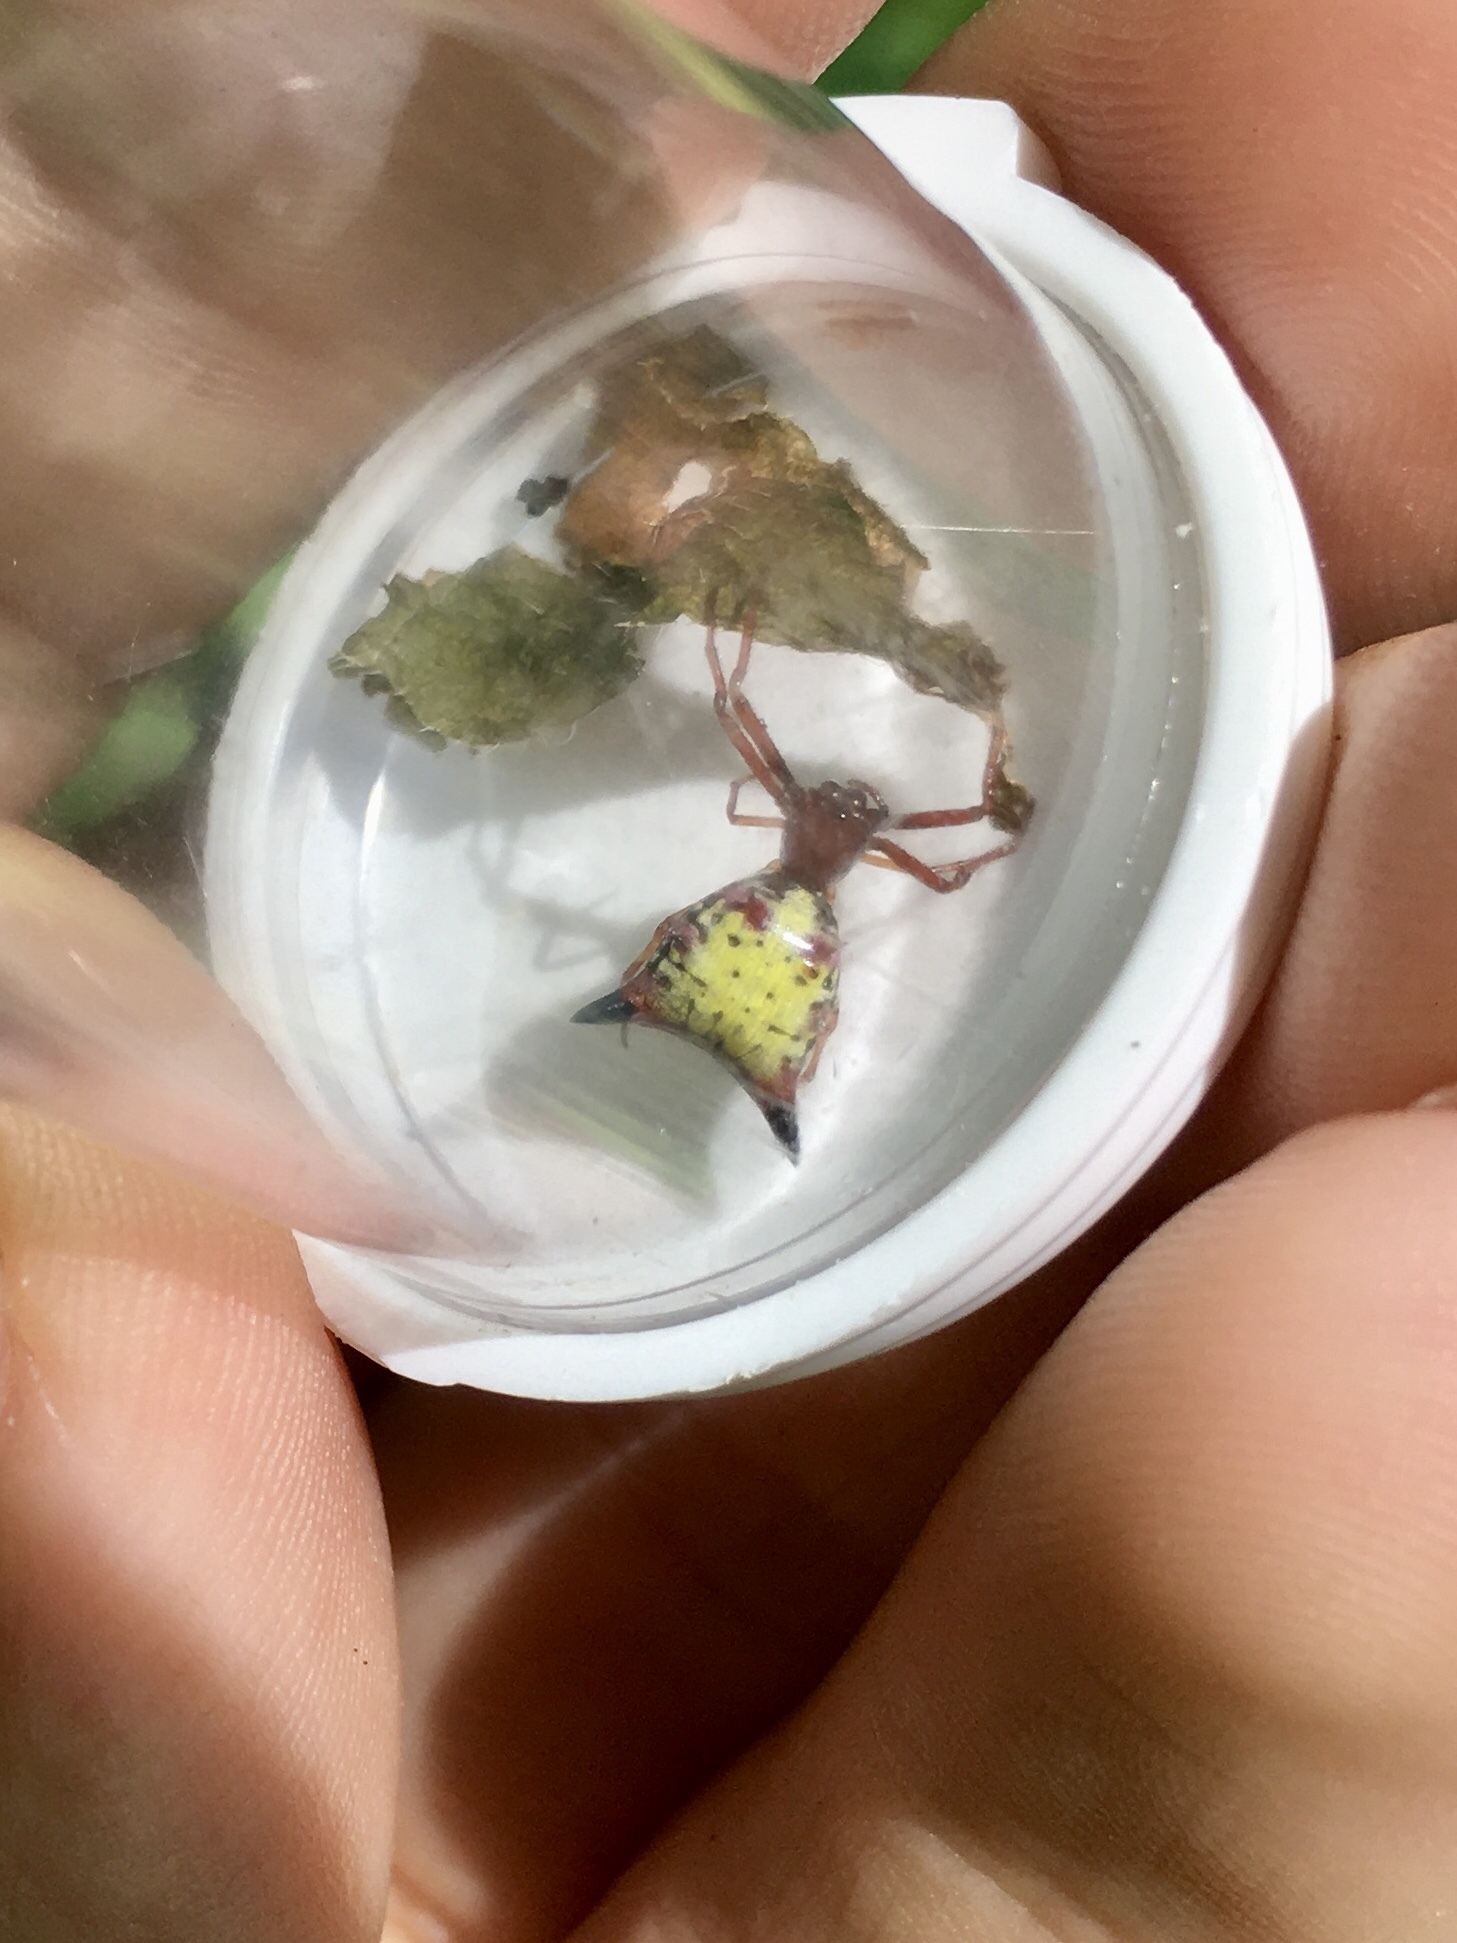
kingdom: Animalia
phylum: Arthropoda
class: Arachnida
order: Araneae
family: Araneidae
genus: Micrathena
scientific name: Micrathena sagittata
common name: Orb weavers
